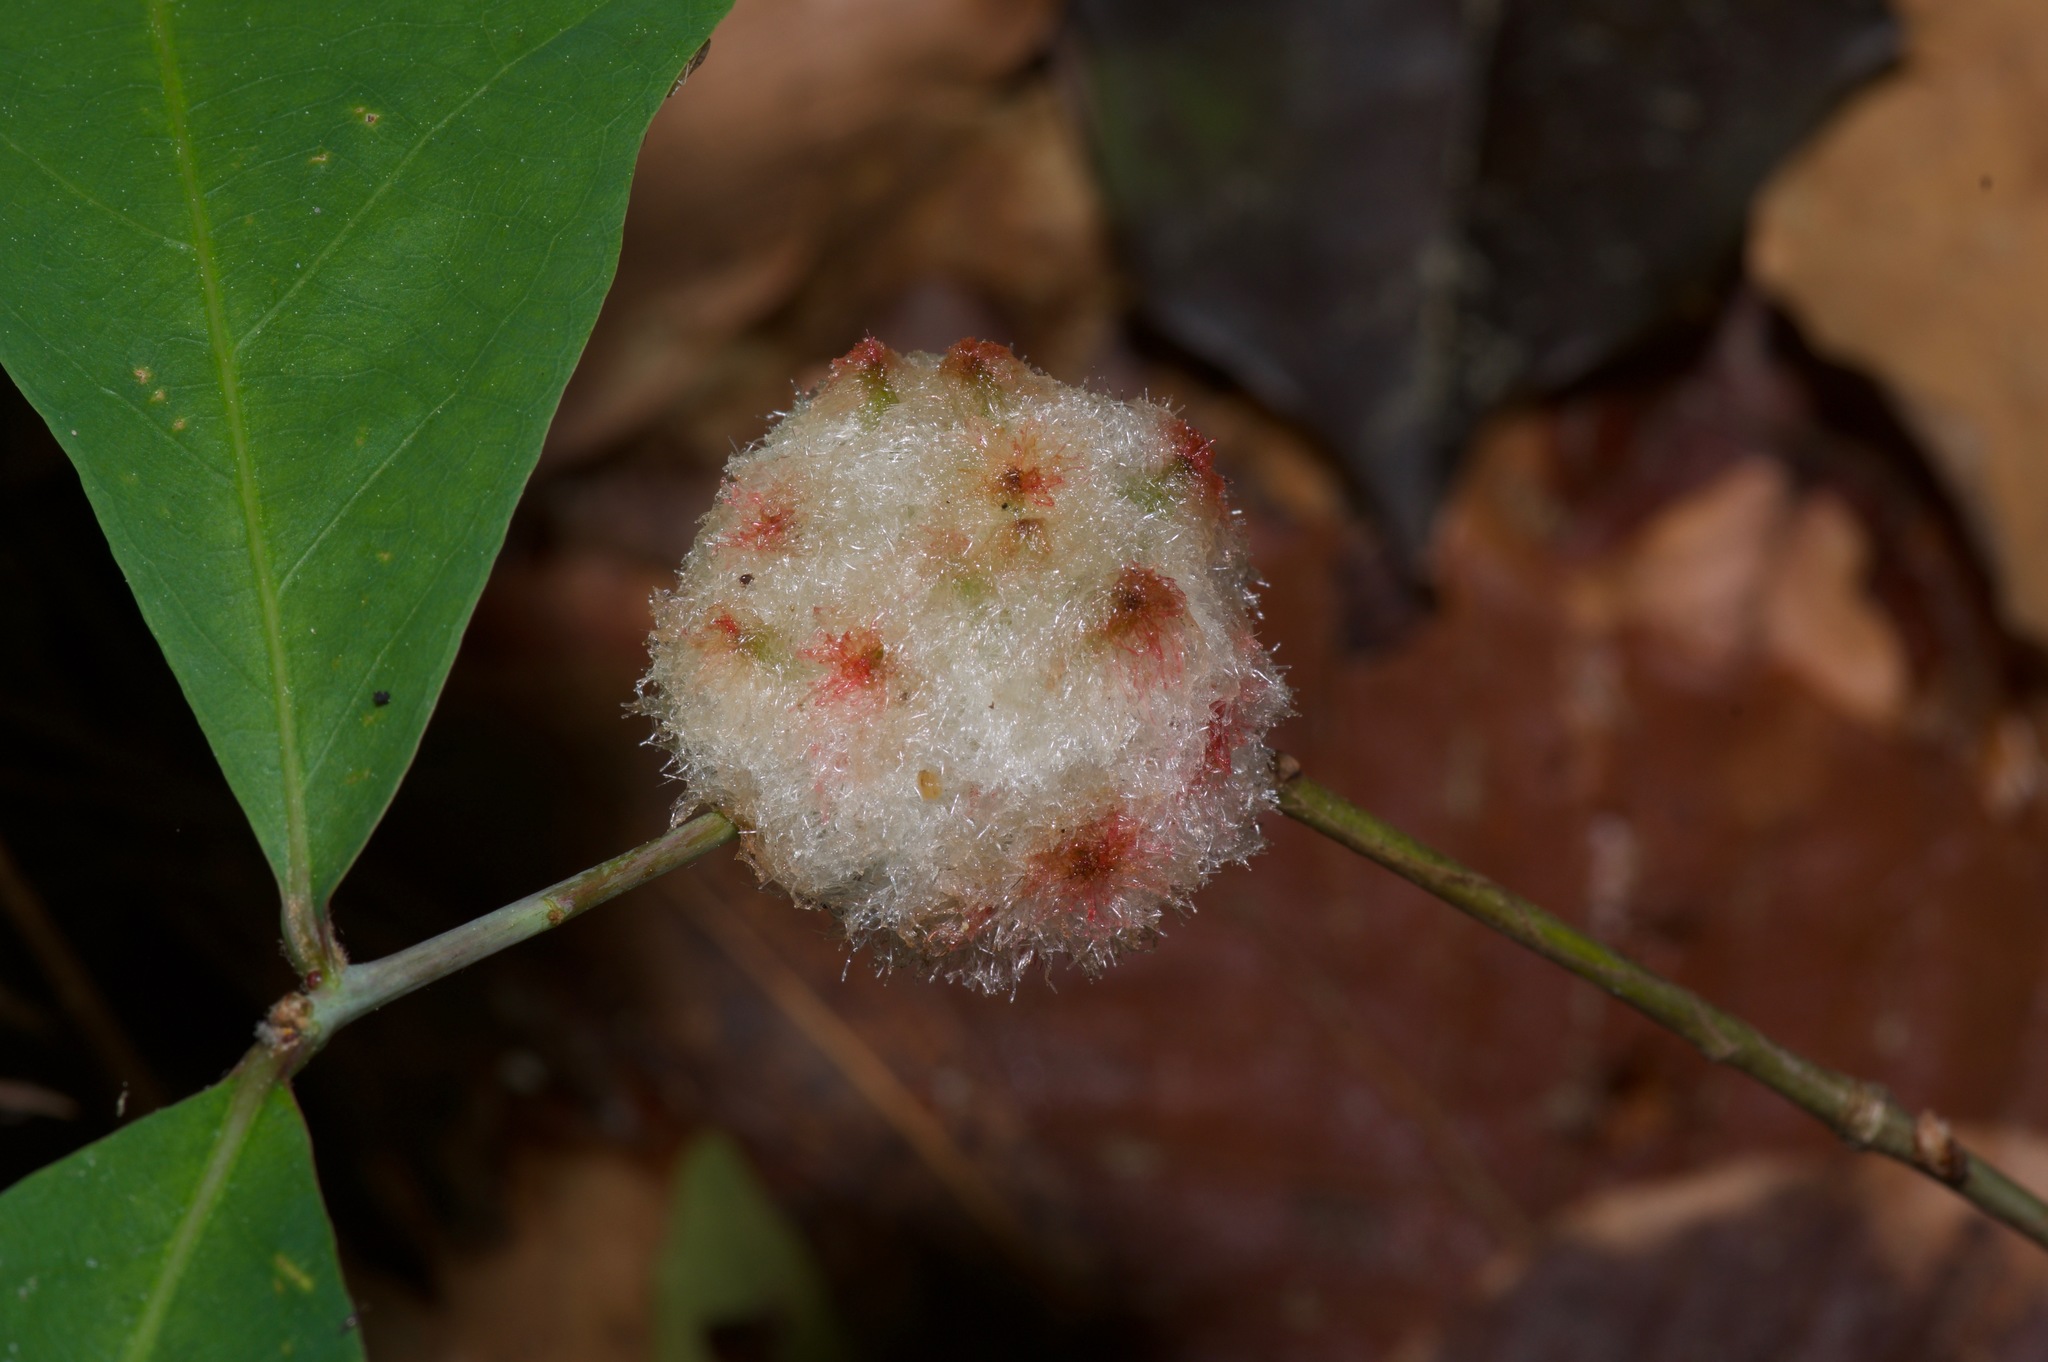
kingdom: Animalia
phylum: Arthropoda
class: Insecta
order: Hymenoptera
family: Cynipidae
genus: Callirhytis
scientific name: Callirhytis
